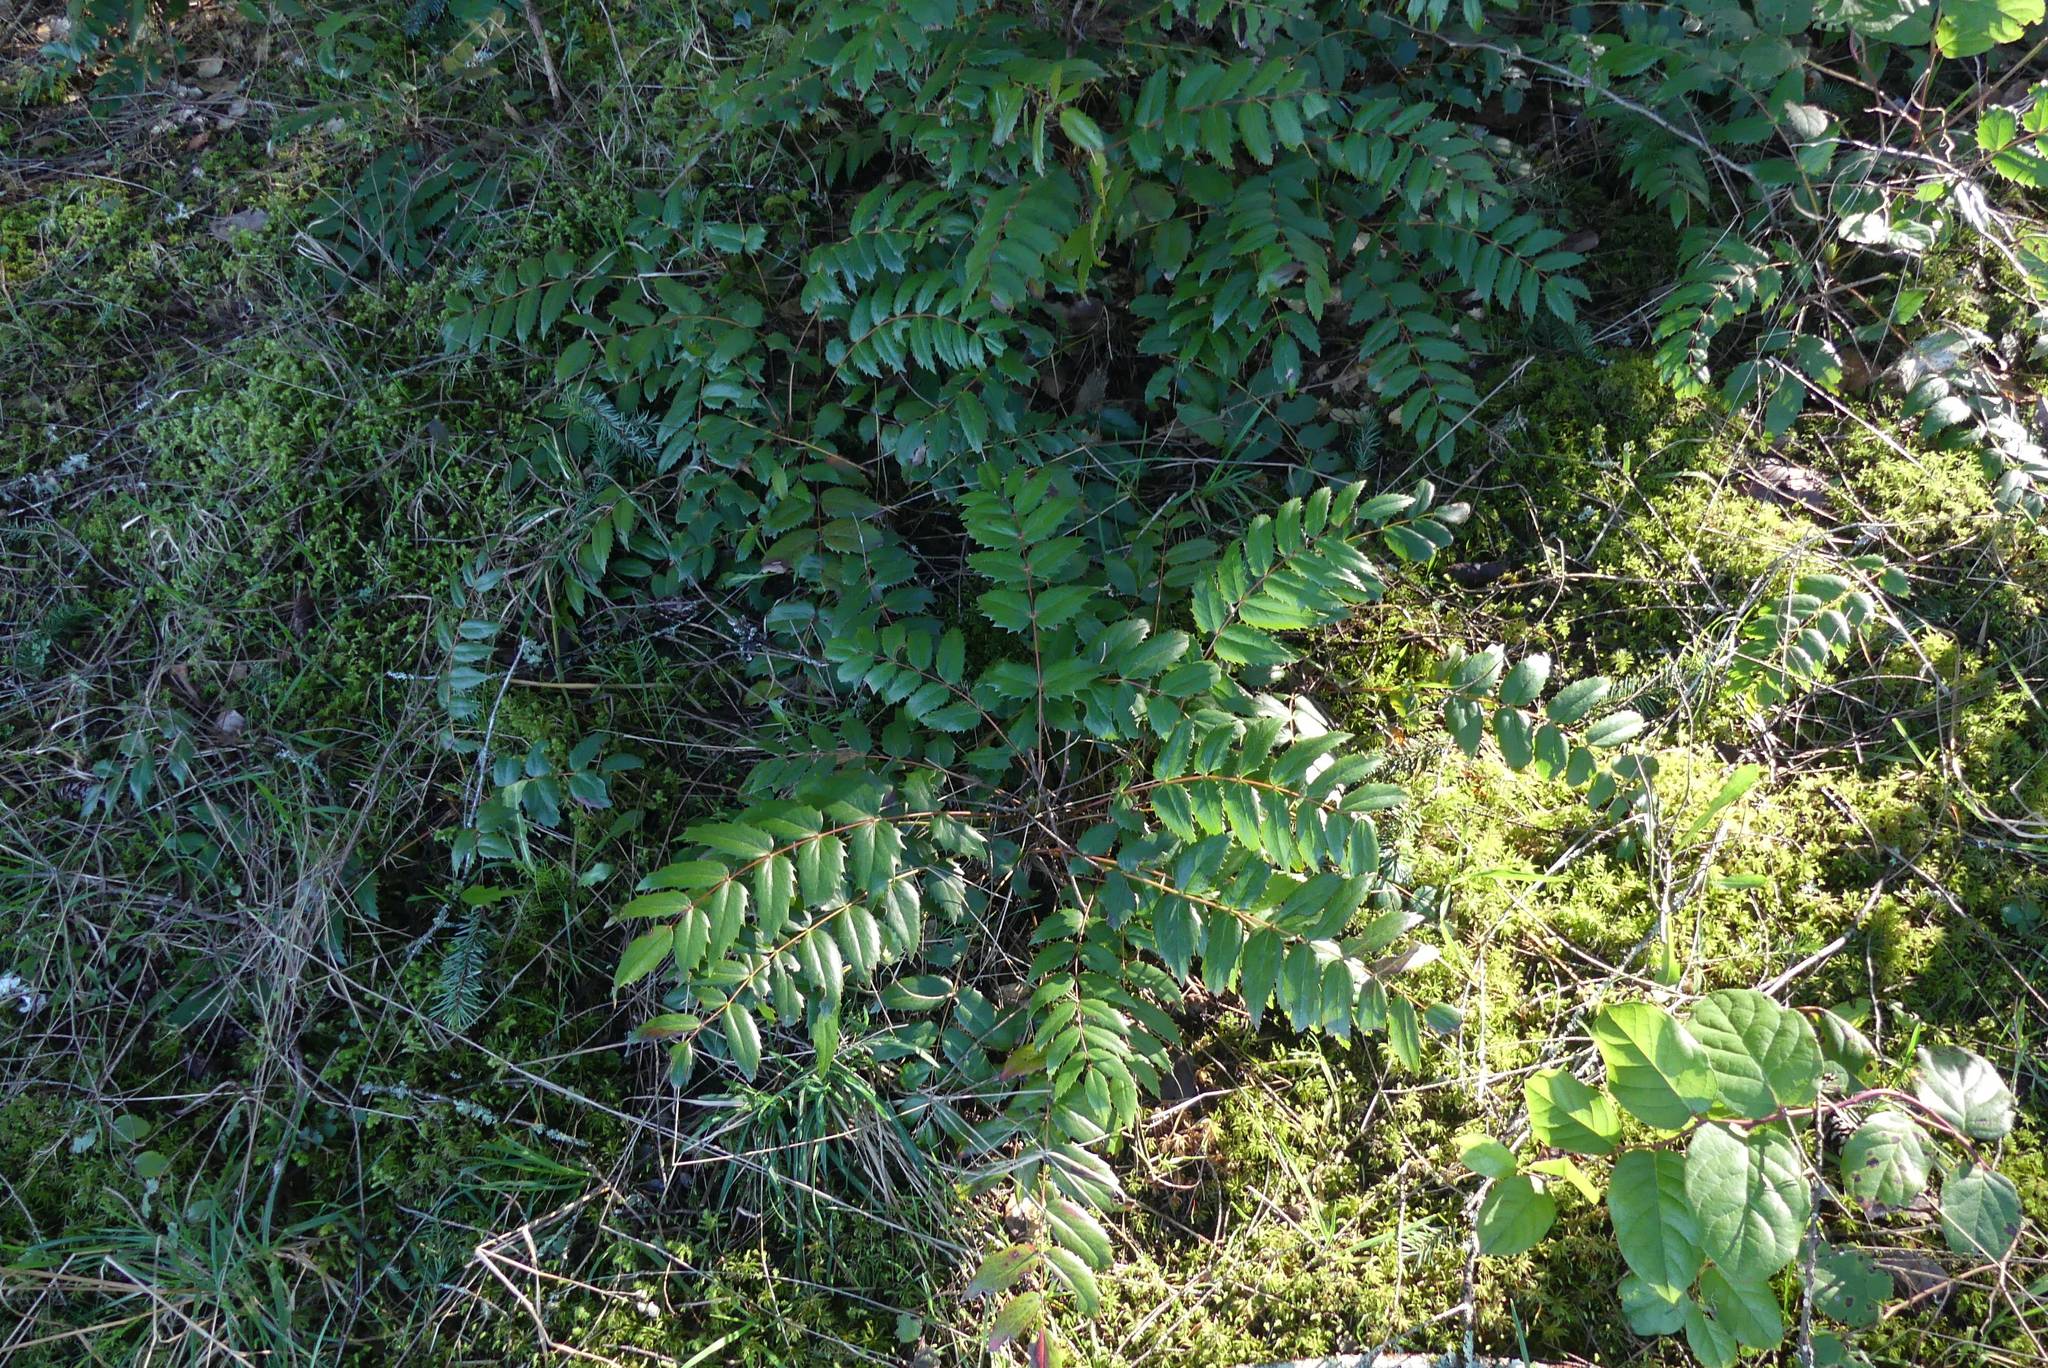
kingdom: Plantae
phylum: Tracheophyta
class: Magnoliopsida
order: Ranunculales
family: Berberidaceae
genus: Mahonia
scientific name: Mahonia nervosa
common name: Cascade oregon-grape
